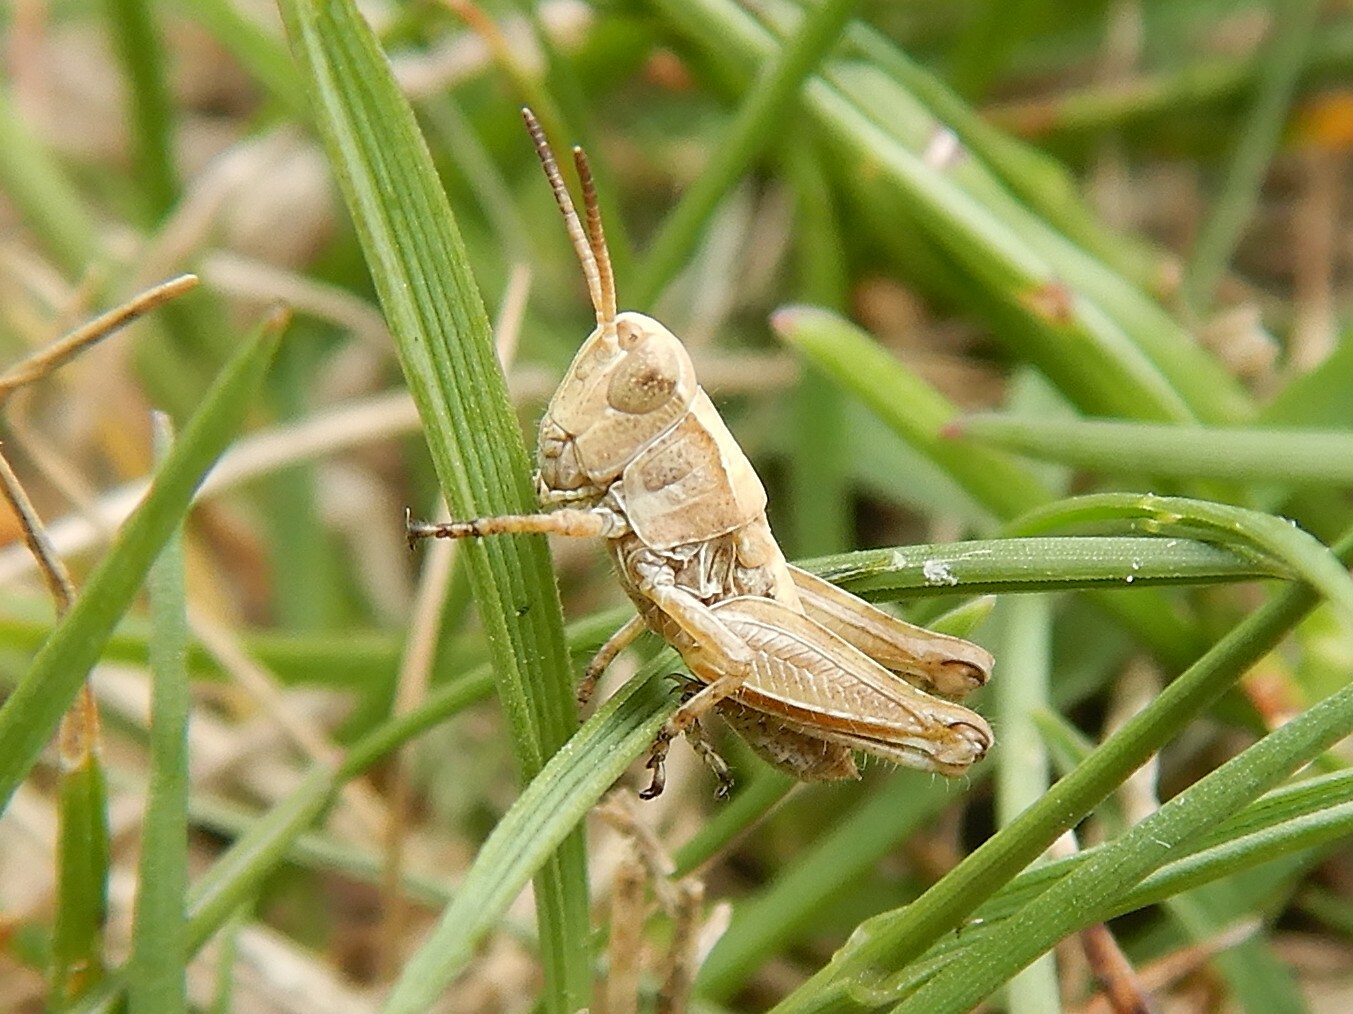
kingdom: Animalia
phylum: Arthropoda
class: Insecta
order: Orthoptera
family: Acrididae
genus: Phaulacridium
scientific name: Phaulacridium marginale
